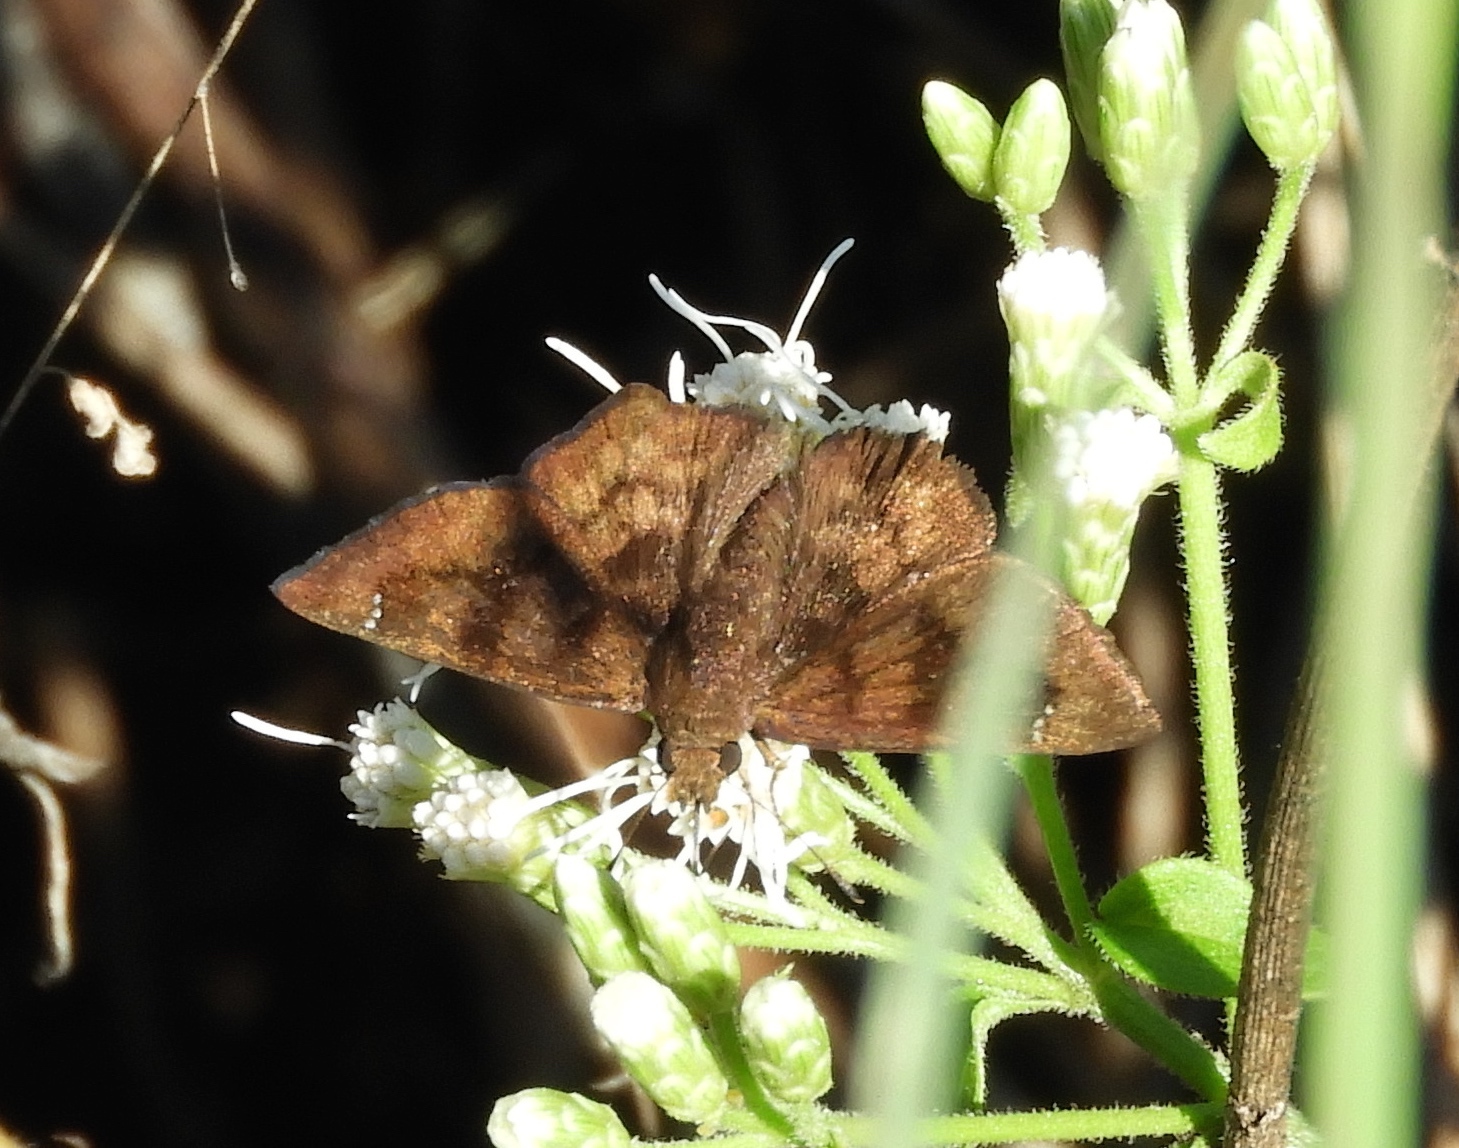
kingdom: Animalia
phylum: Arthropoda
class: Insecta
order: Lepidoptera
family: Hesperiidae
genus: Nisoniades
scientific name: Nisoniades
